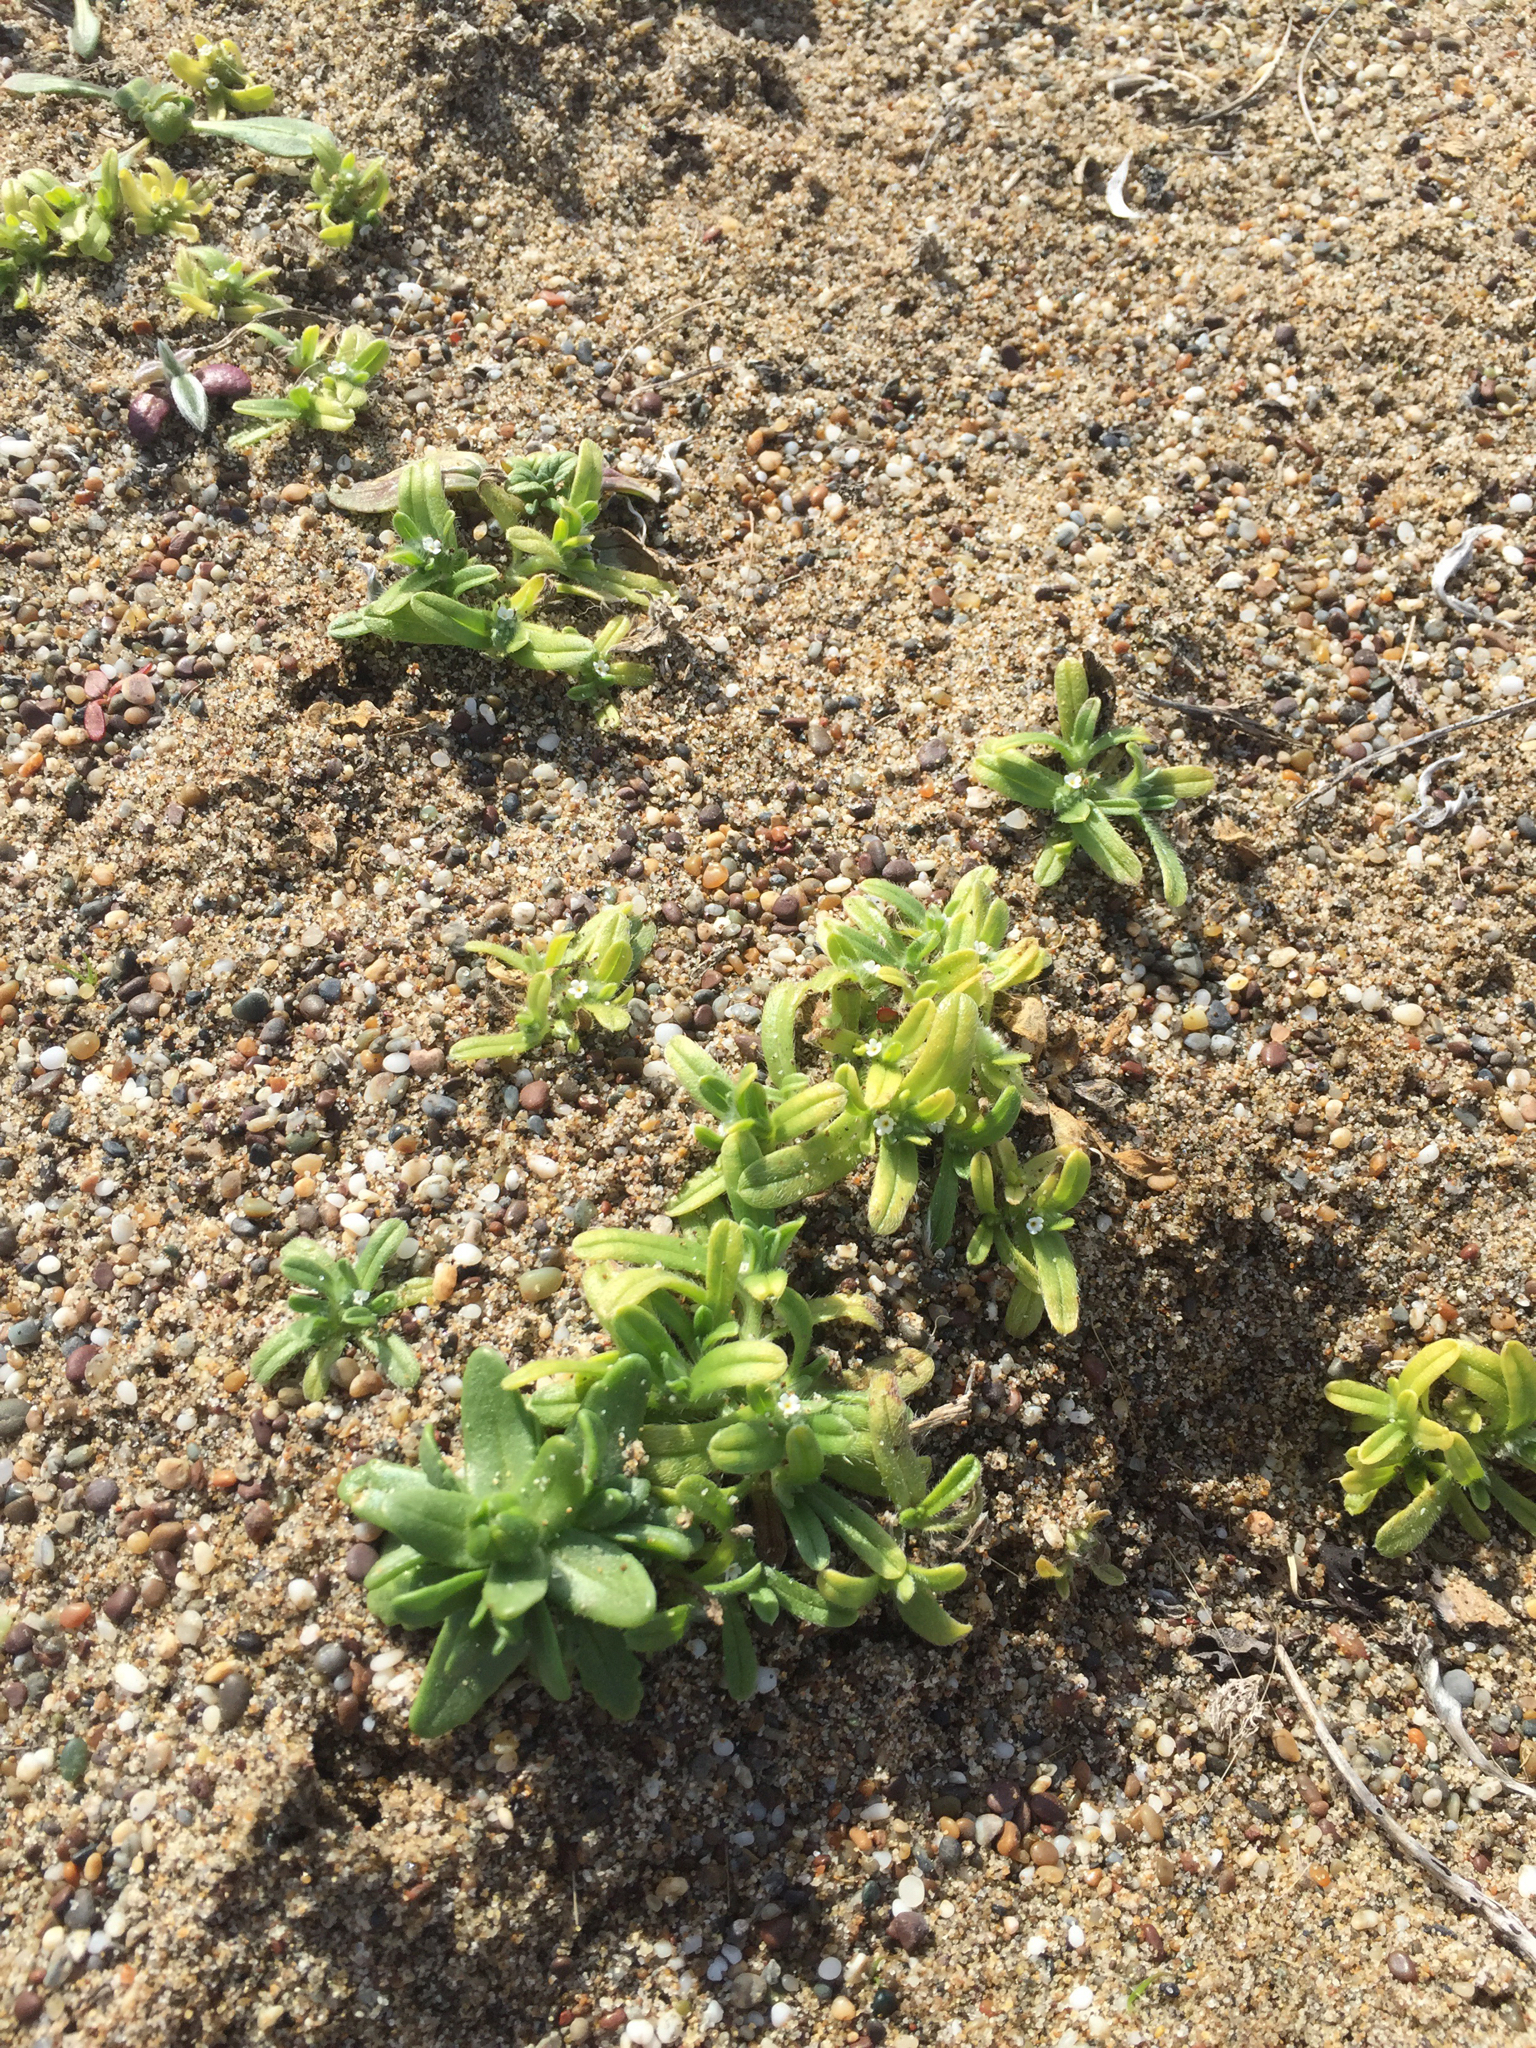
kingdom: Plantae
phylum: Tracheophyta
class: Magnoliopsida
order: Boraginales
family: Boraginaceae
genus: Cryptantha
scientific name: Cryptantha leiocarpa
